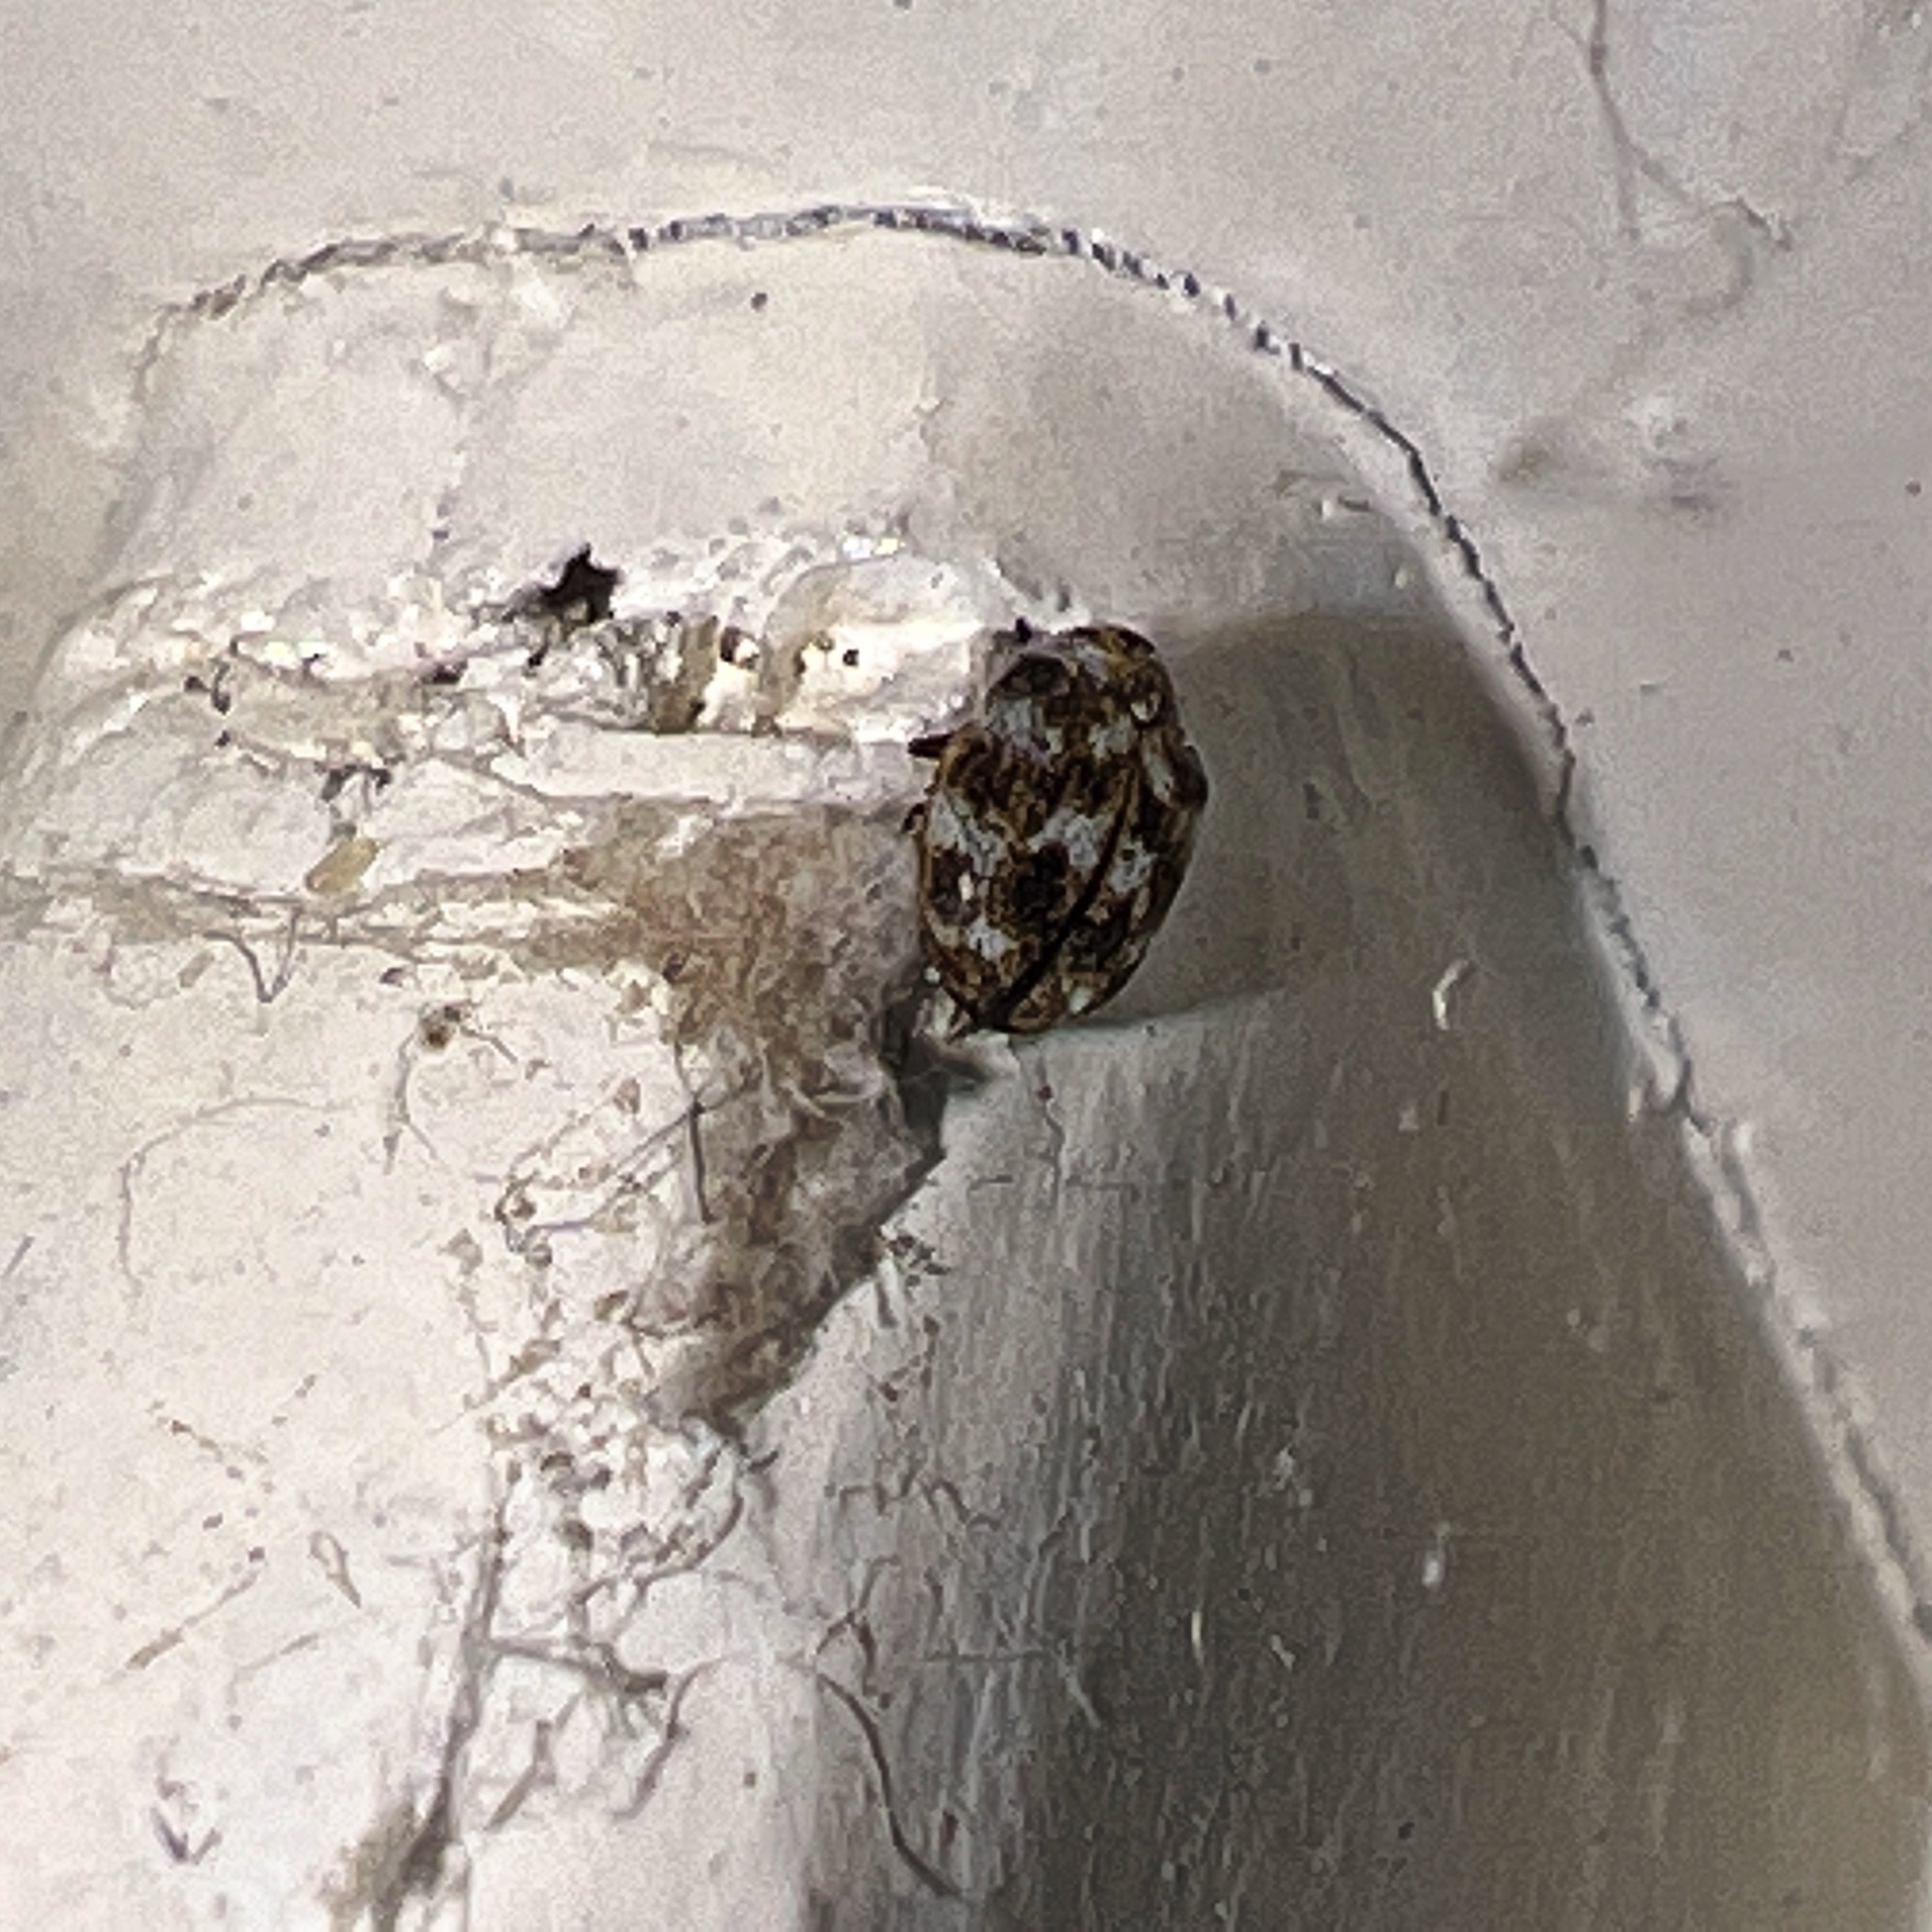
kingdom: Animalia
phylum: Arthropoda
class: Insecta
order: Coleoptera
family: Dermestidae
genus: Anthrenus
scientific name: Anthrenus verbasci
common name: Varied carpet beetle
